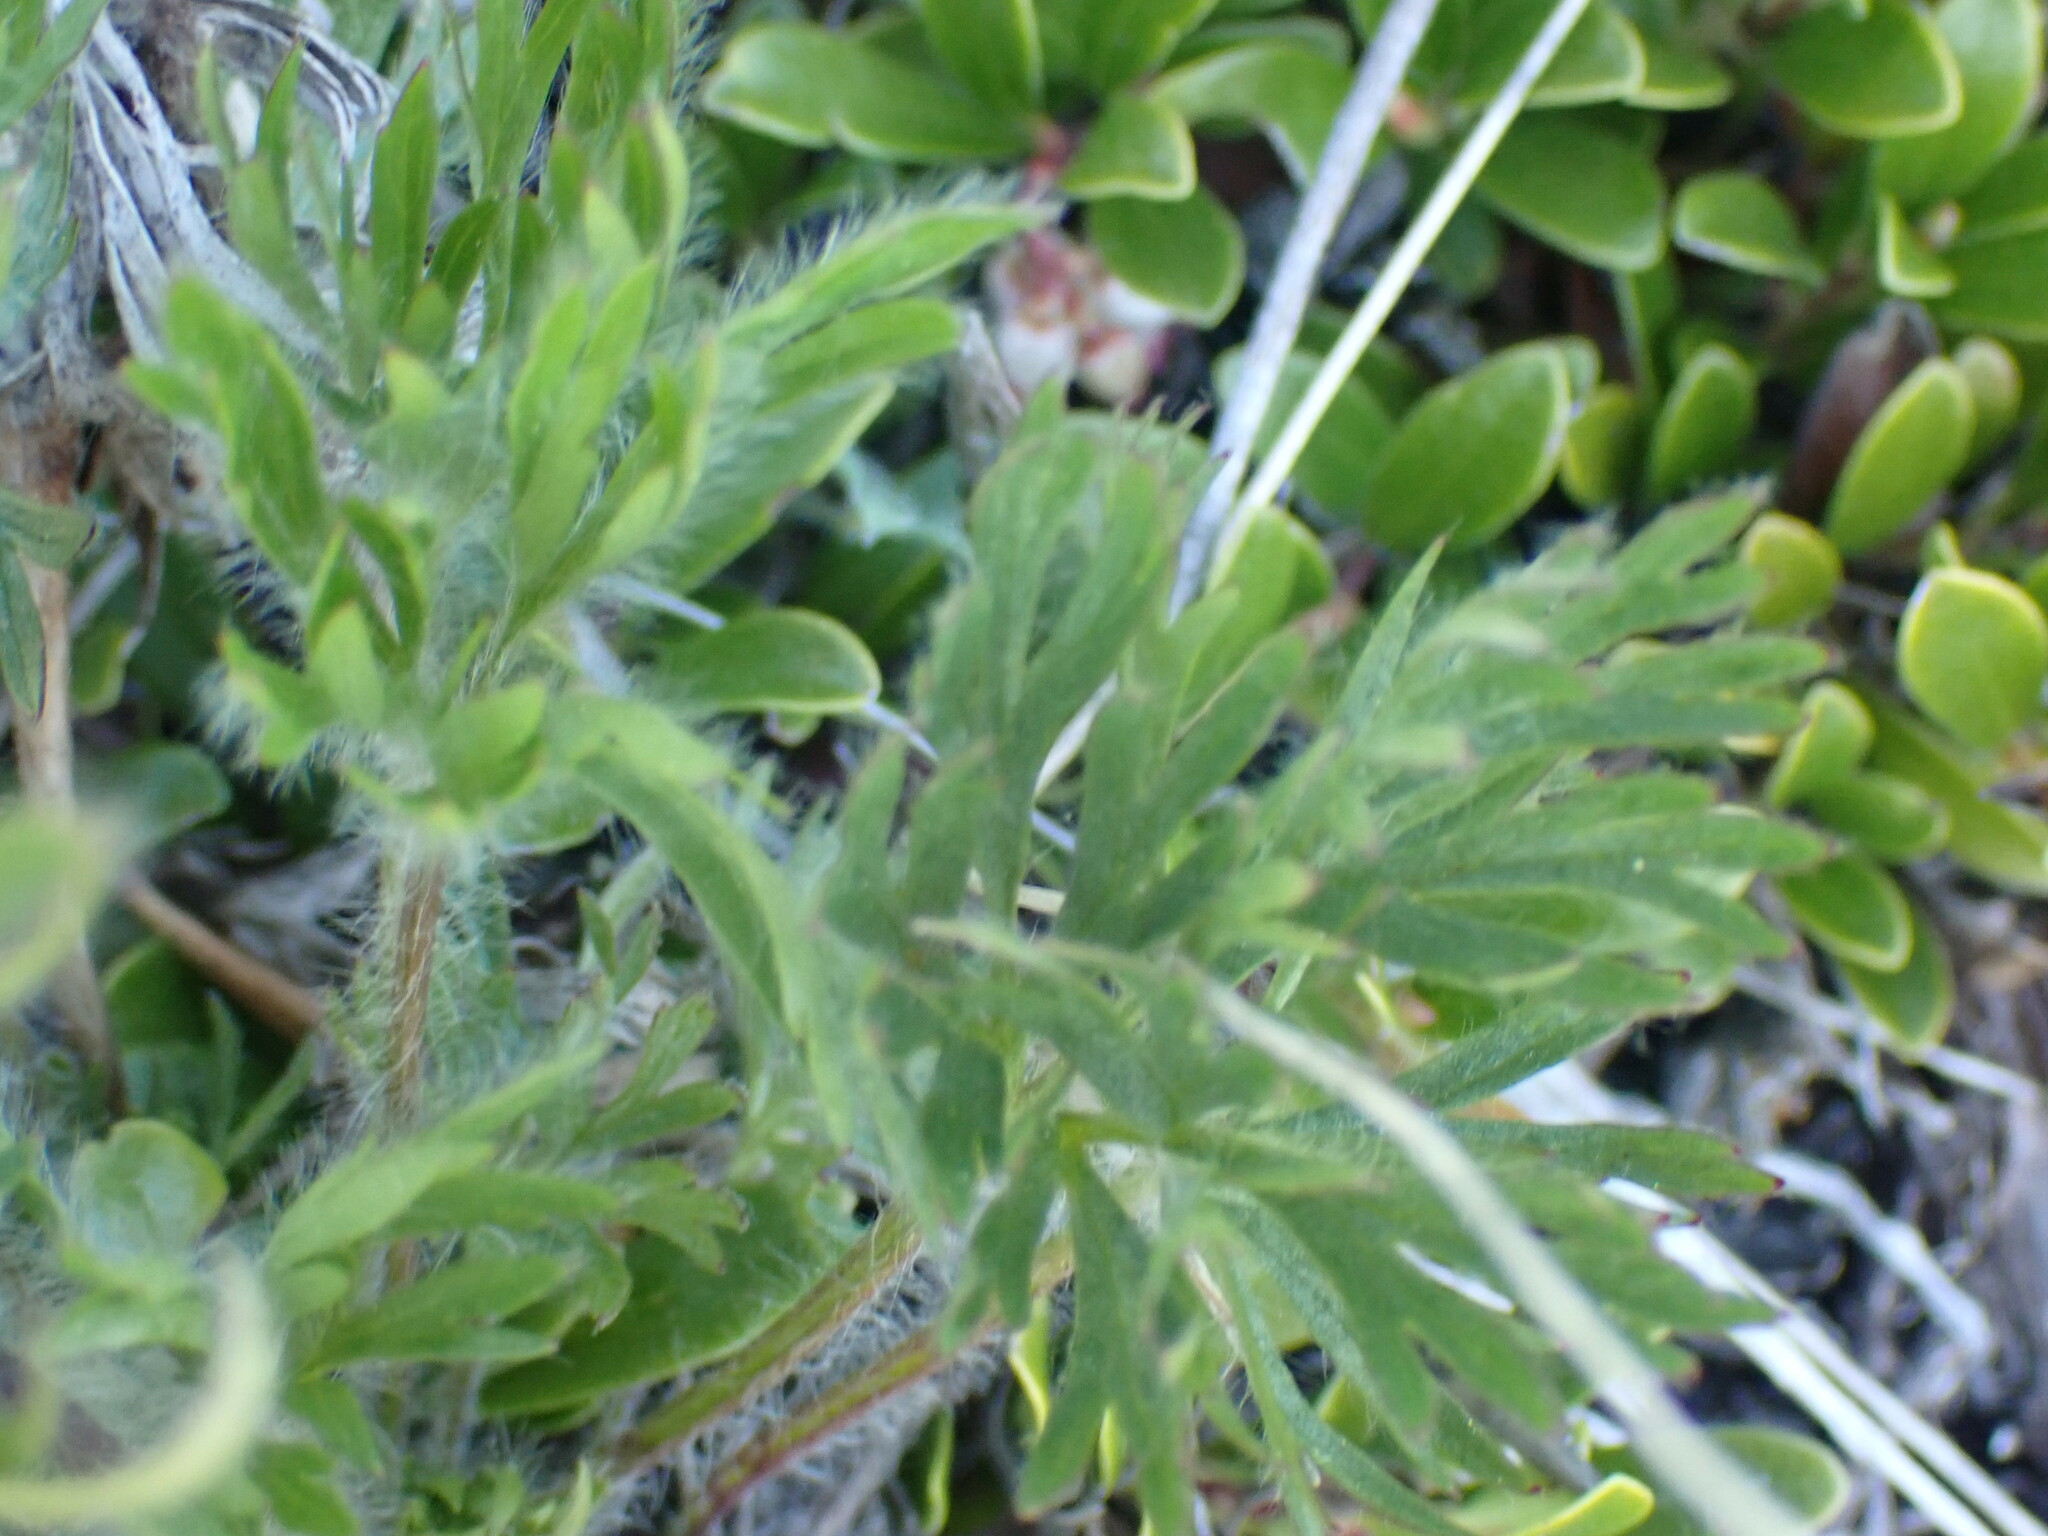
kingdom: Plantae
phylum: Tracheophyta
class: Magnoliopsida
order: Ranunculales
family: Ranunculaceae
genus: Anemone
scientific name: Anemone multifida
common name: Bird's-foot anemone
